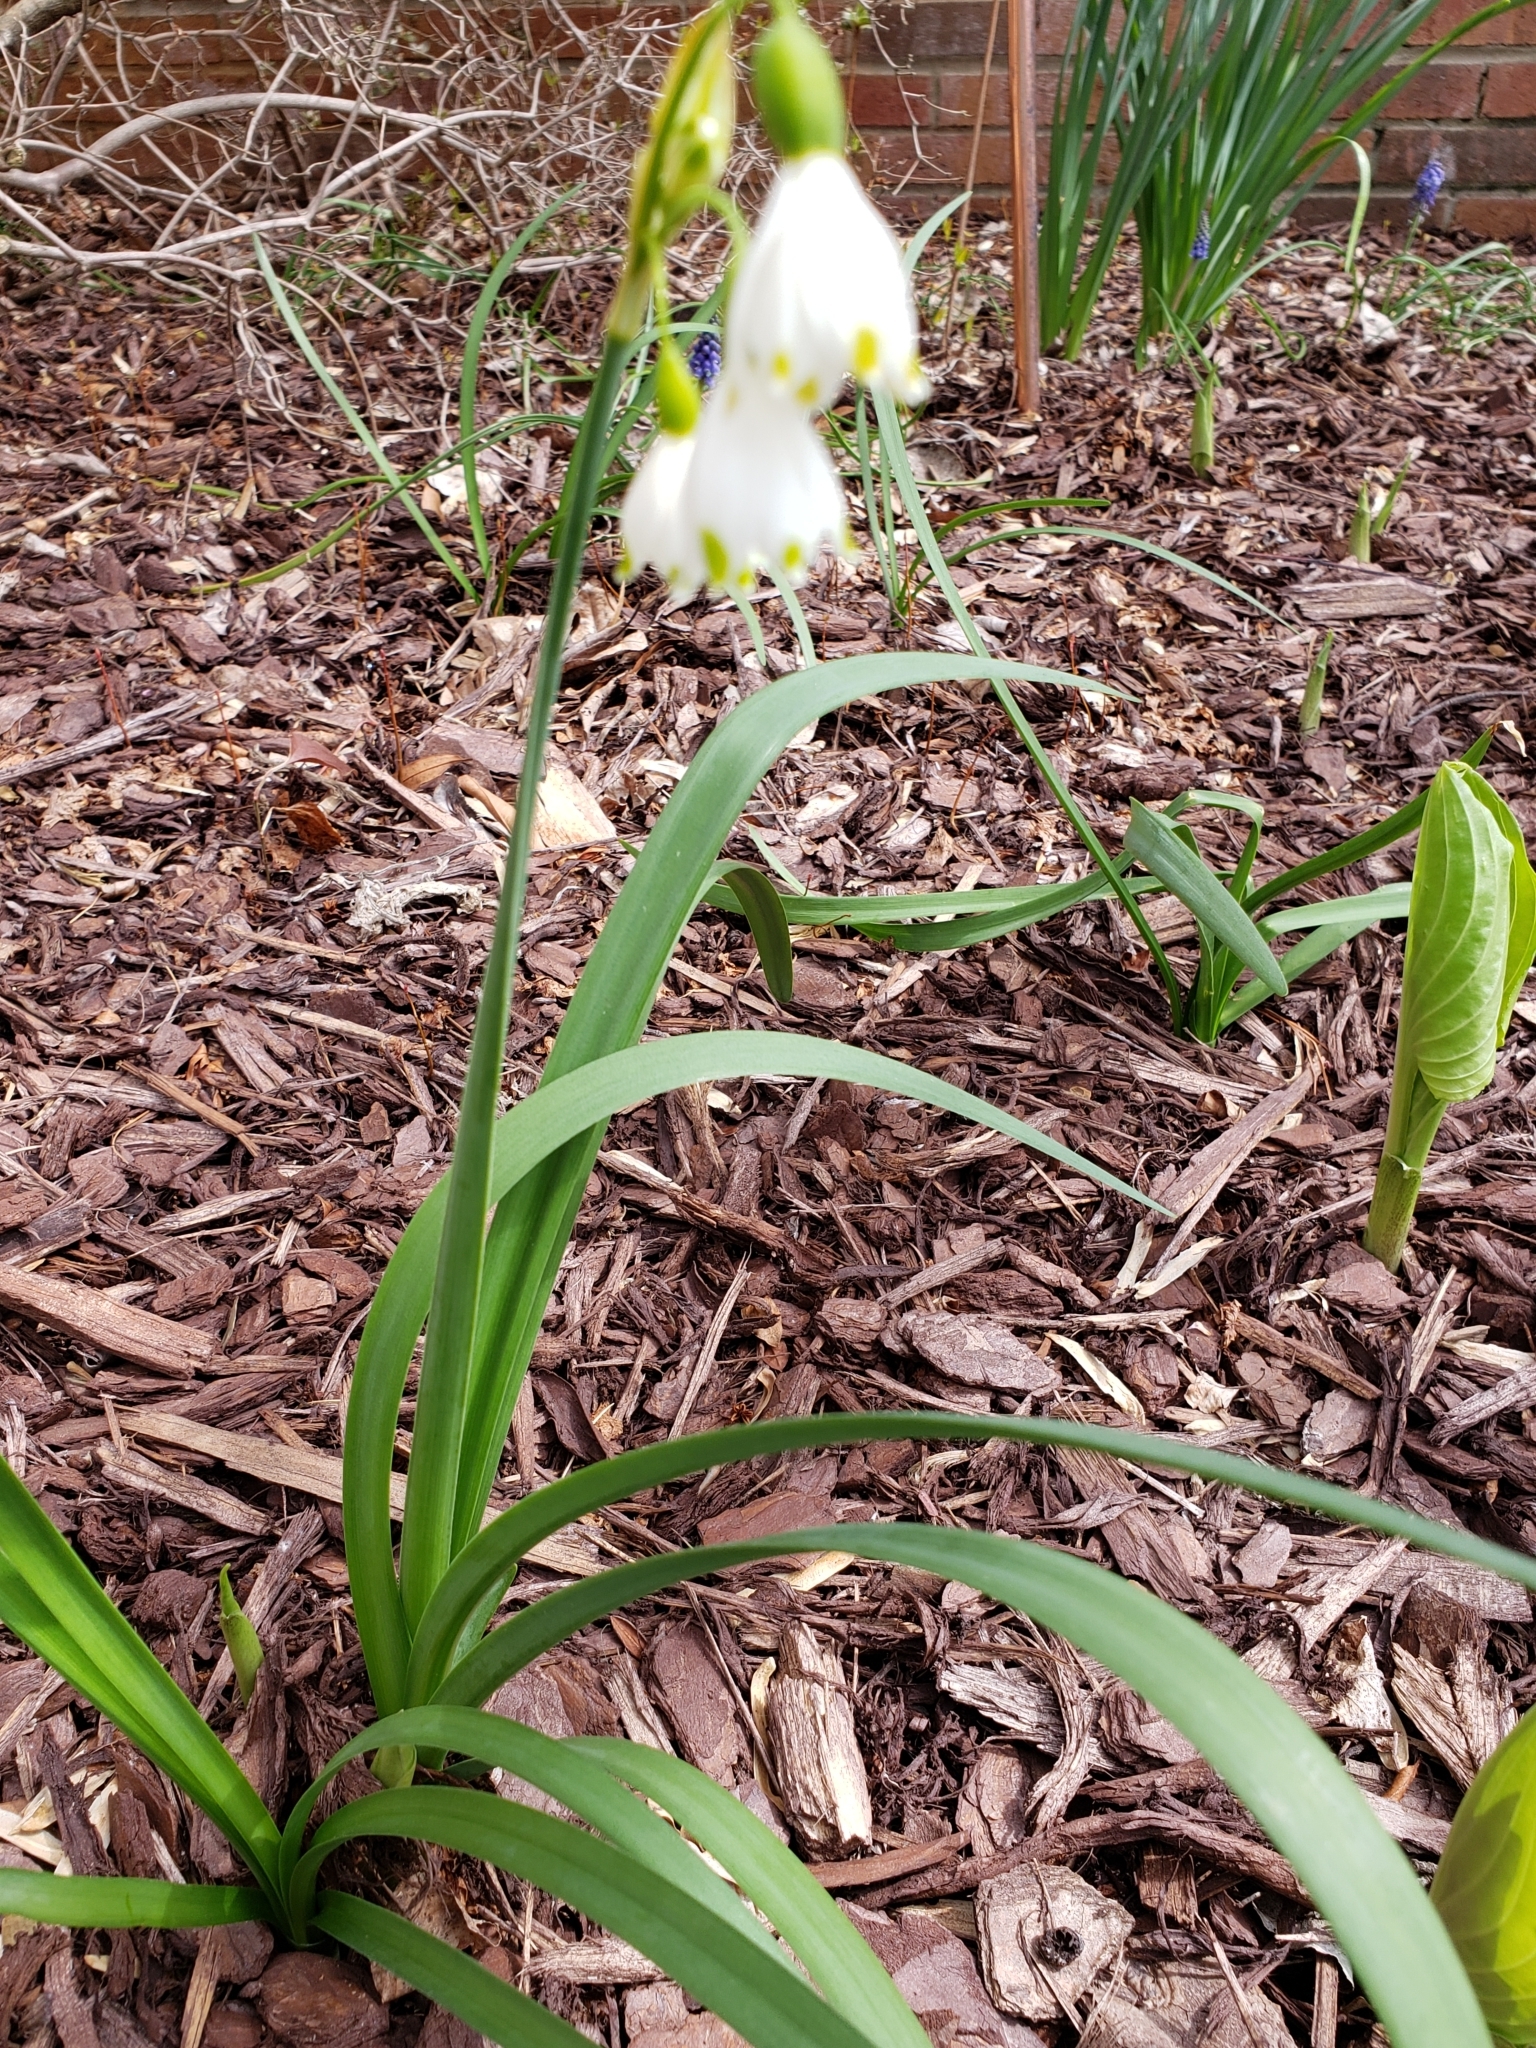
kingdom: Plantae
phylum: Tracheophyta
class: Liliopsida
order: Asparagales
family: Amaryllidaceae
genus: Leucojum
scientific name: Leucojum aestivum
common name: Summer snowflake
